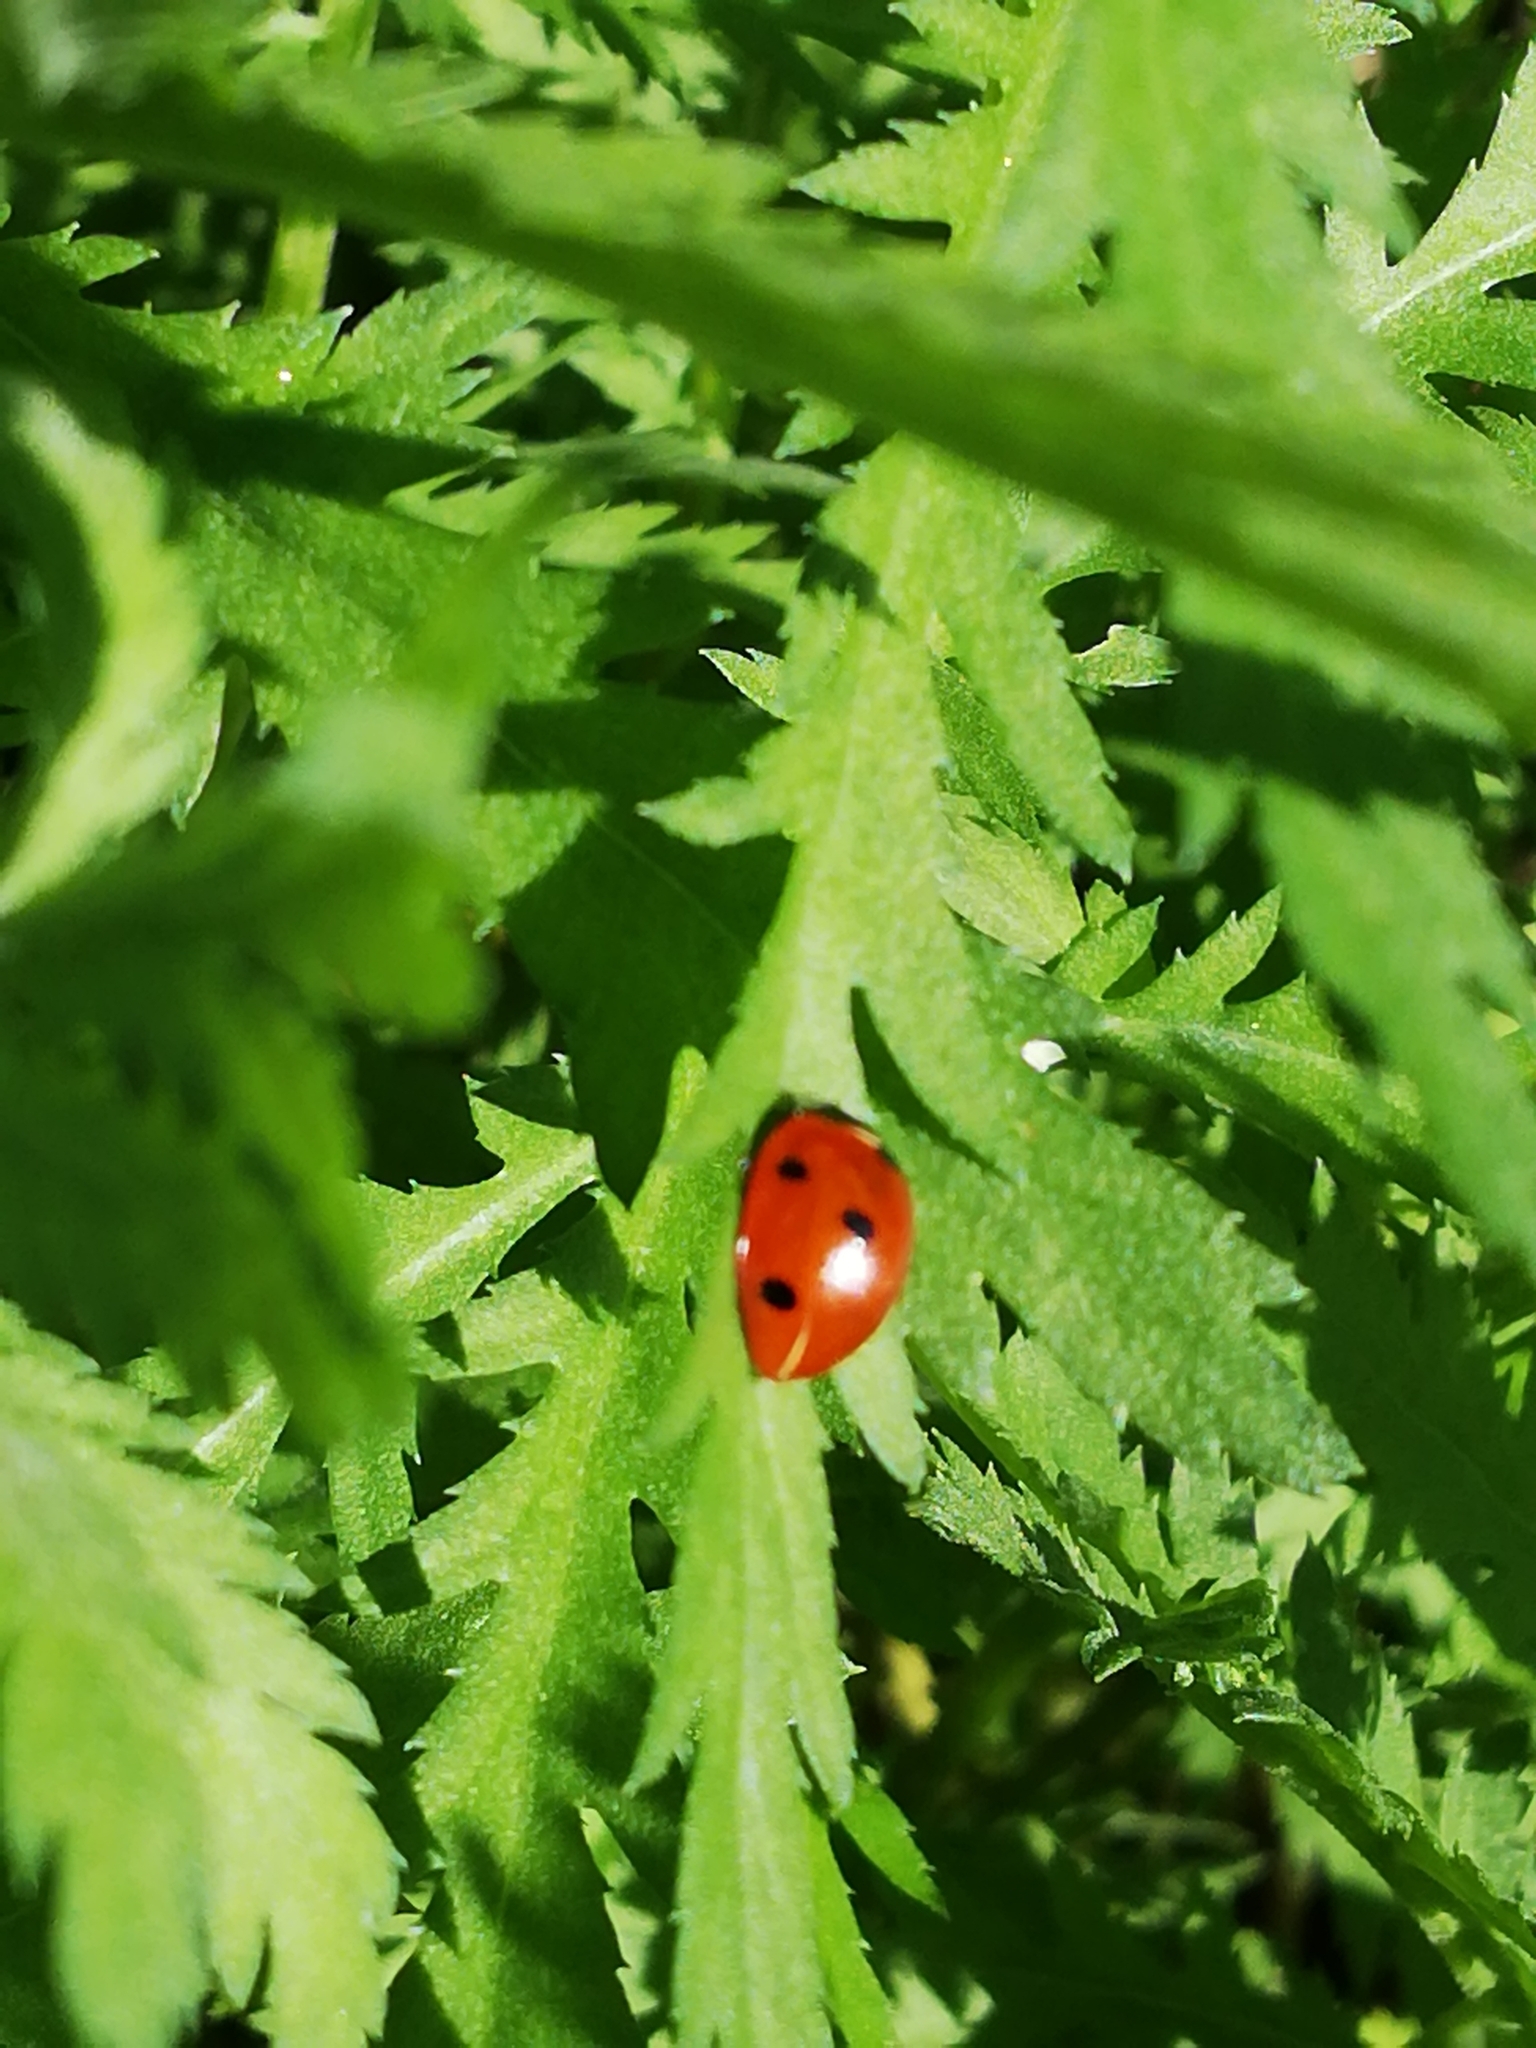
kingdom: Animalia
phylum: Arthropoda
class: Insecta
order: Coleoptera
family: Coccinellidae
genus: Coccinella
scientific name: Coccinella septempunctata
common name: Sevenspotted lady beetle
